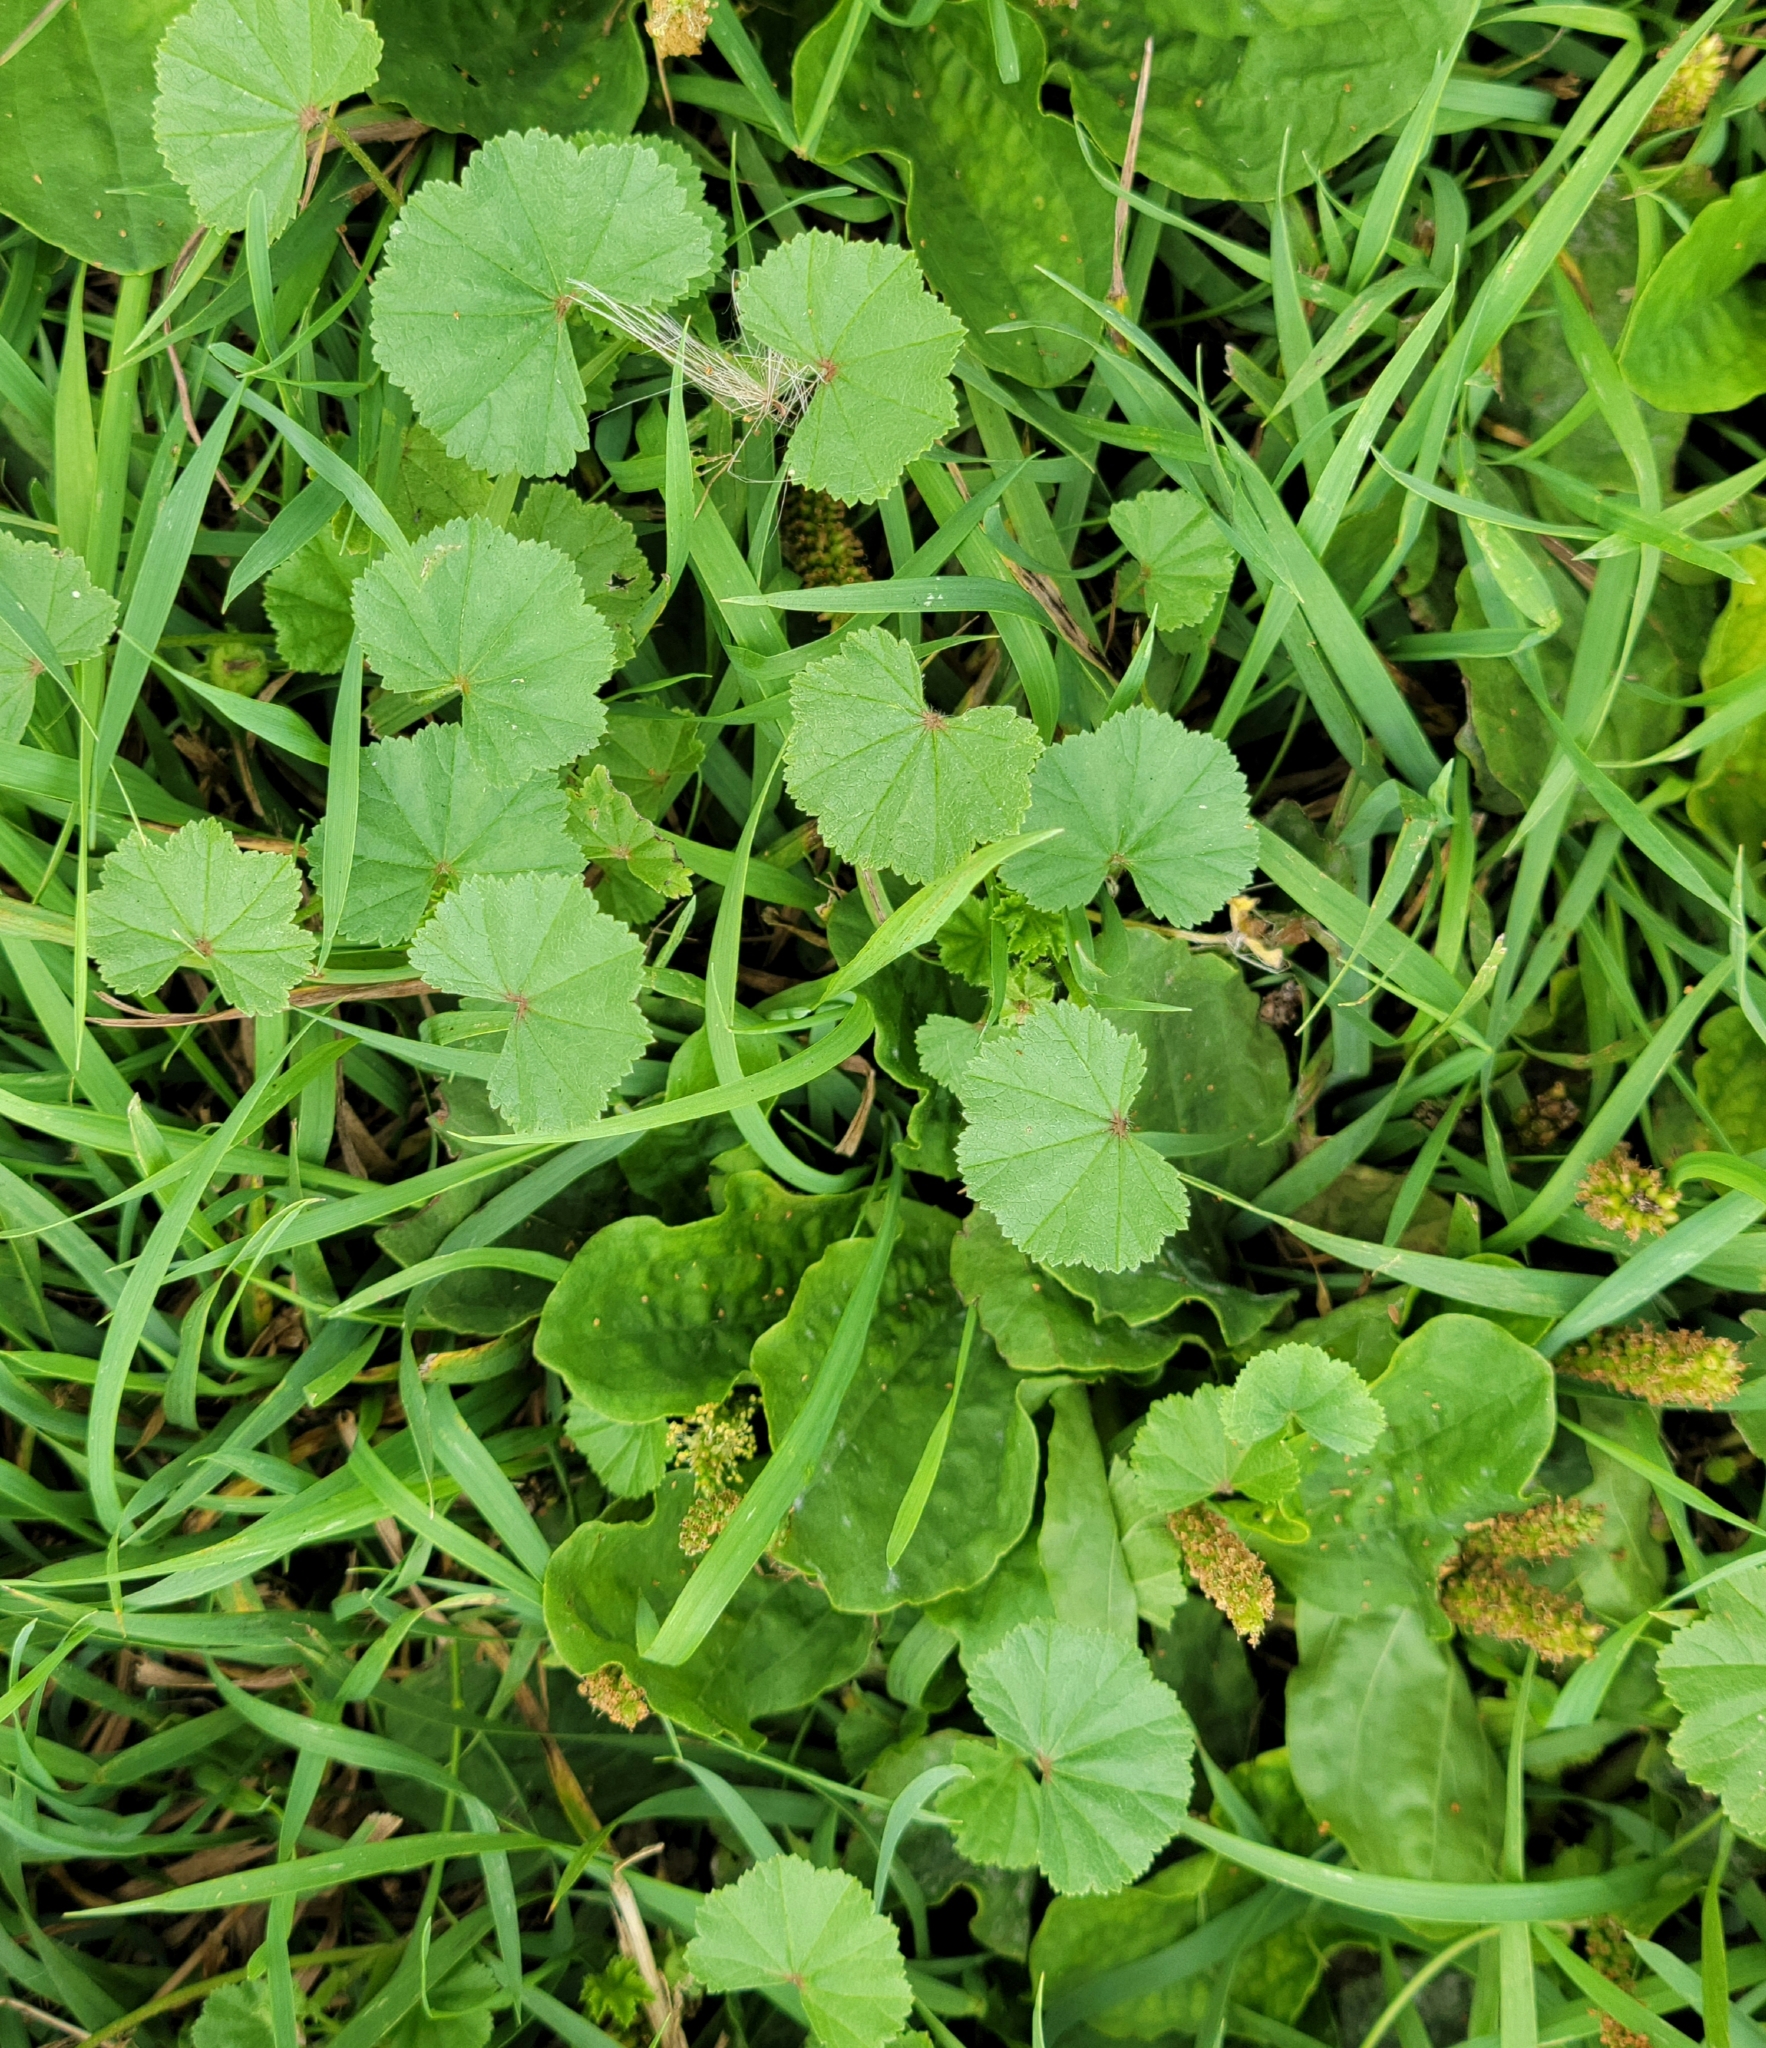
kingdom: Plantae
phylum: Tracheophyta
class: Magnoliopsida
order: Malvales
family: Malvaceae
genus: Malva
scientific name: Malva neglecta
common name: Common mallow
